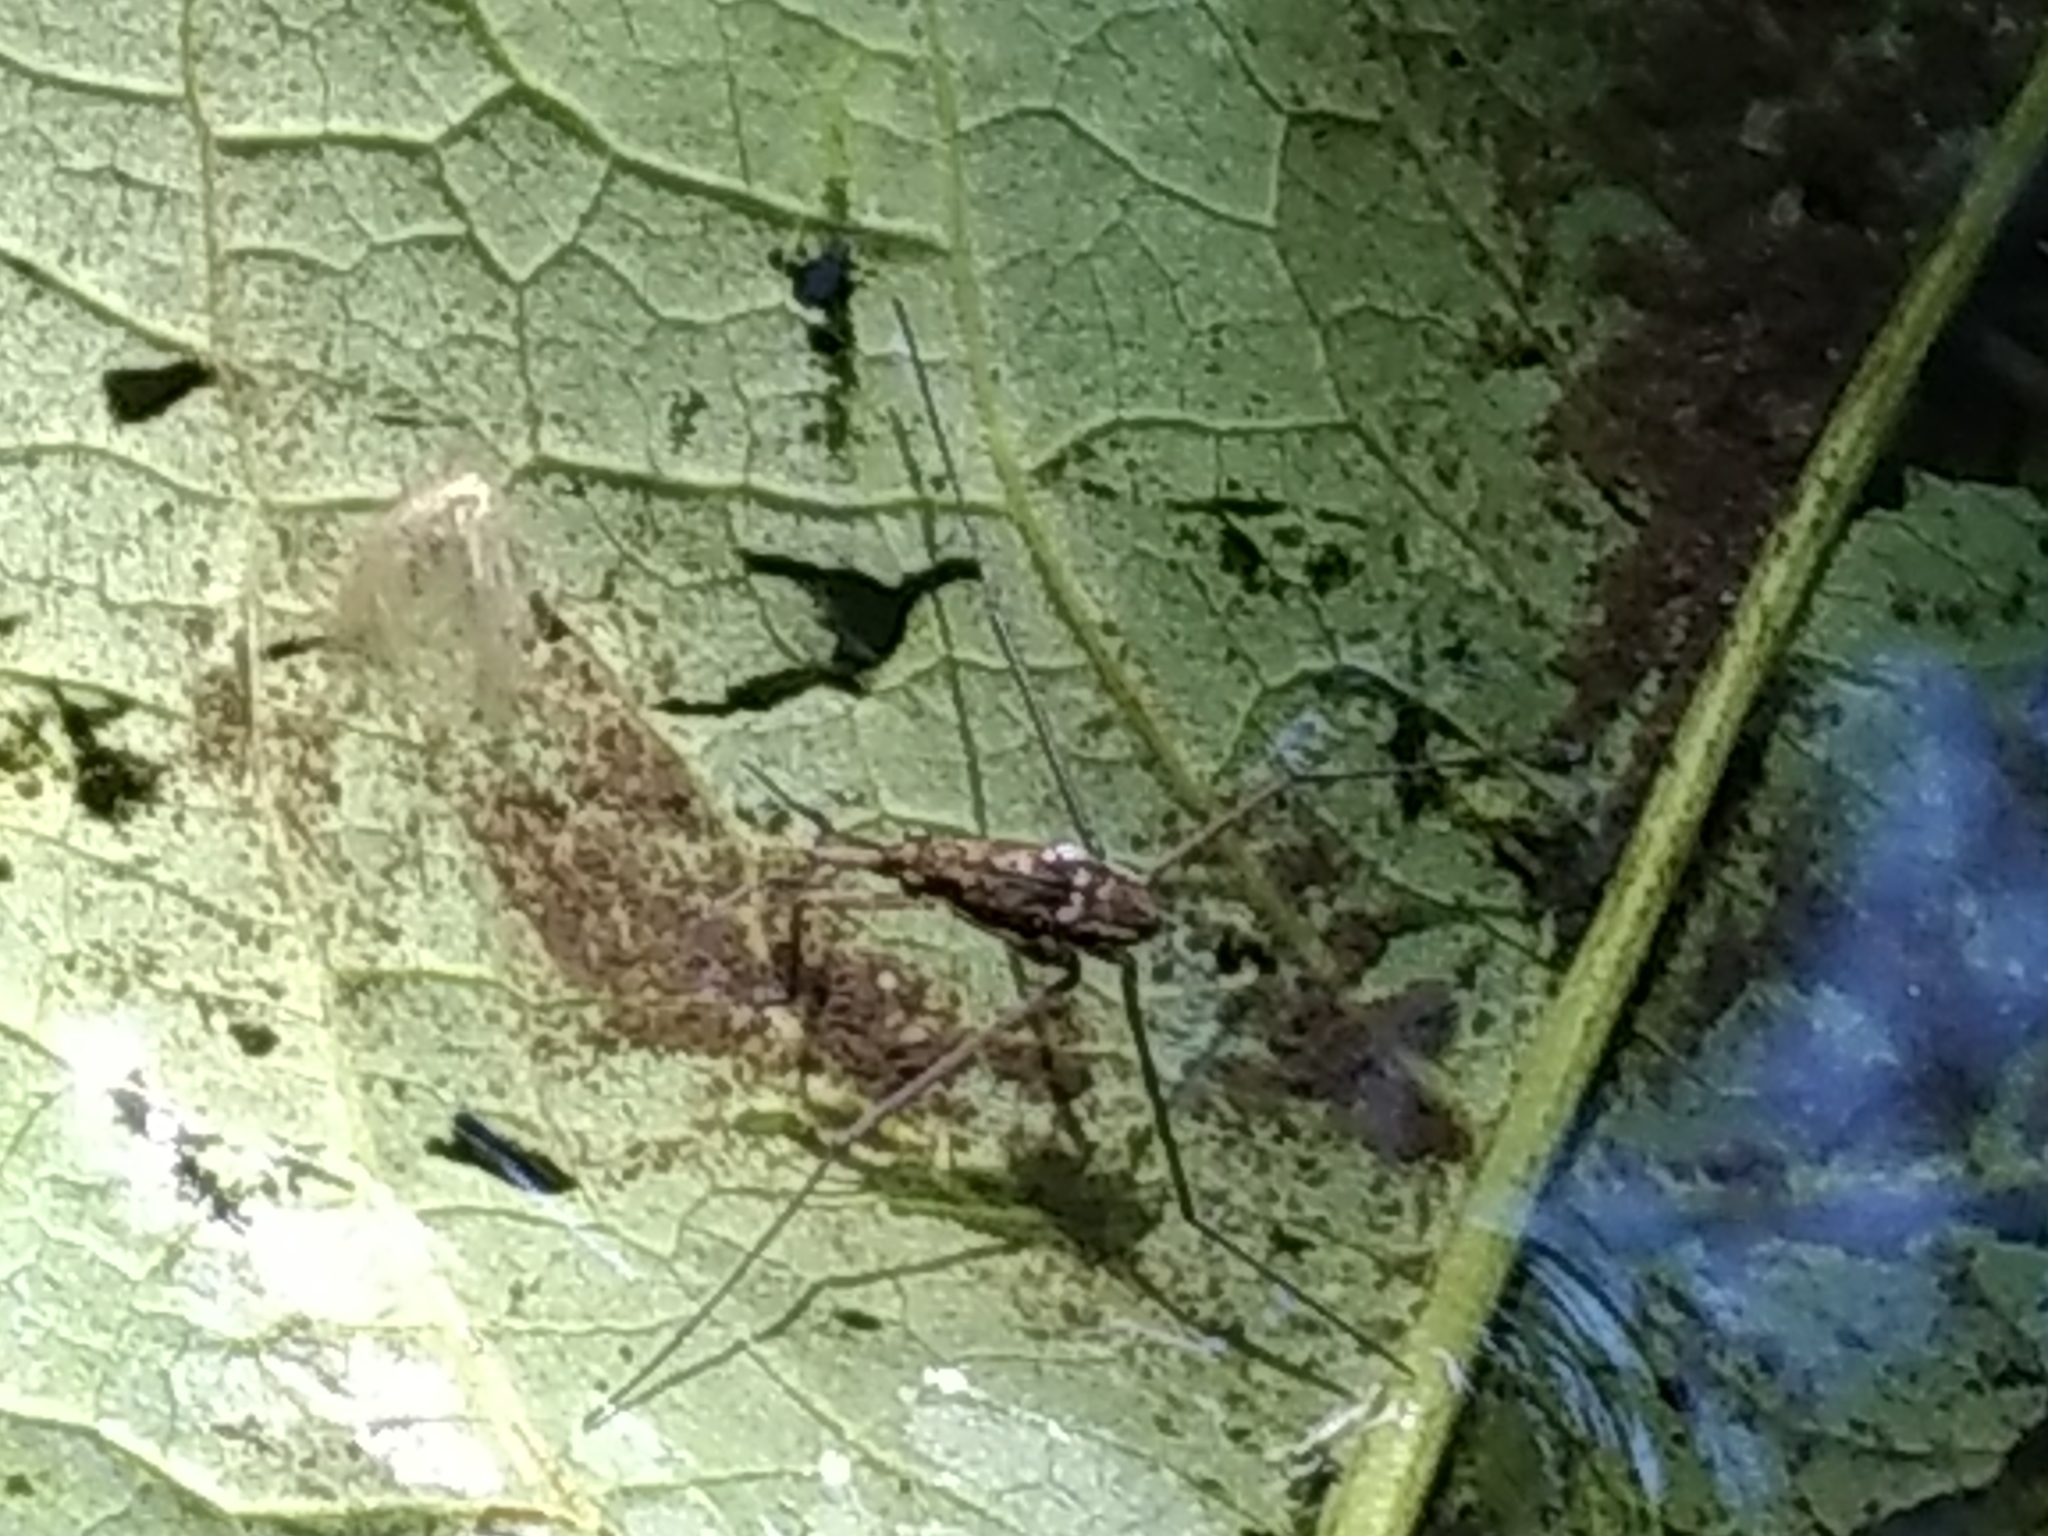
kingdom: Animalia
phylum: Arthropoda
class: Insecta
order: Hemiptera
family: Gerridae
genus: Aquarius
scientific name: Aquarius remigis
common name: Common water strider
